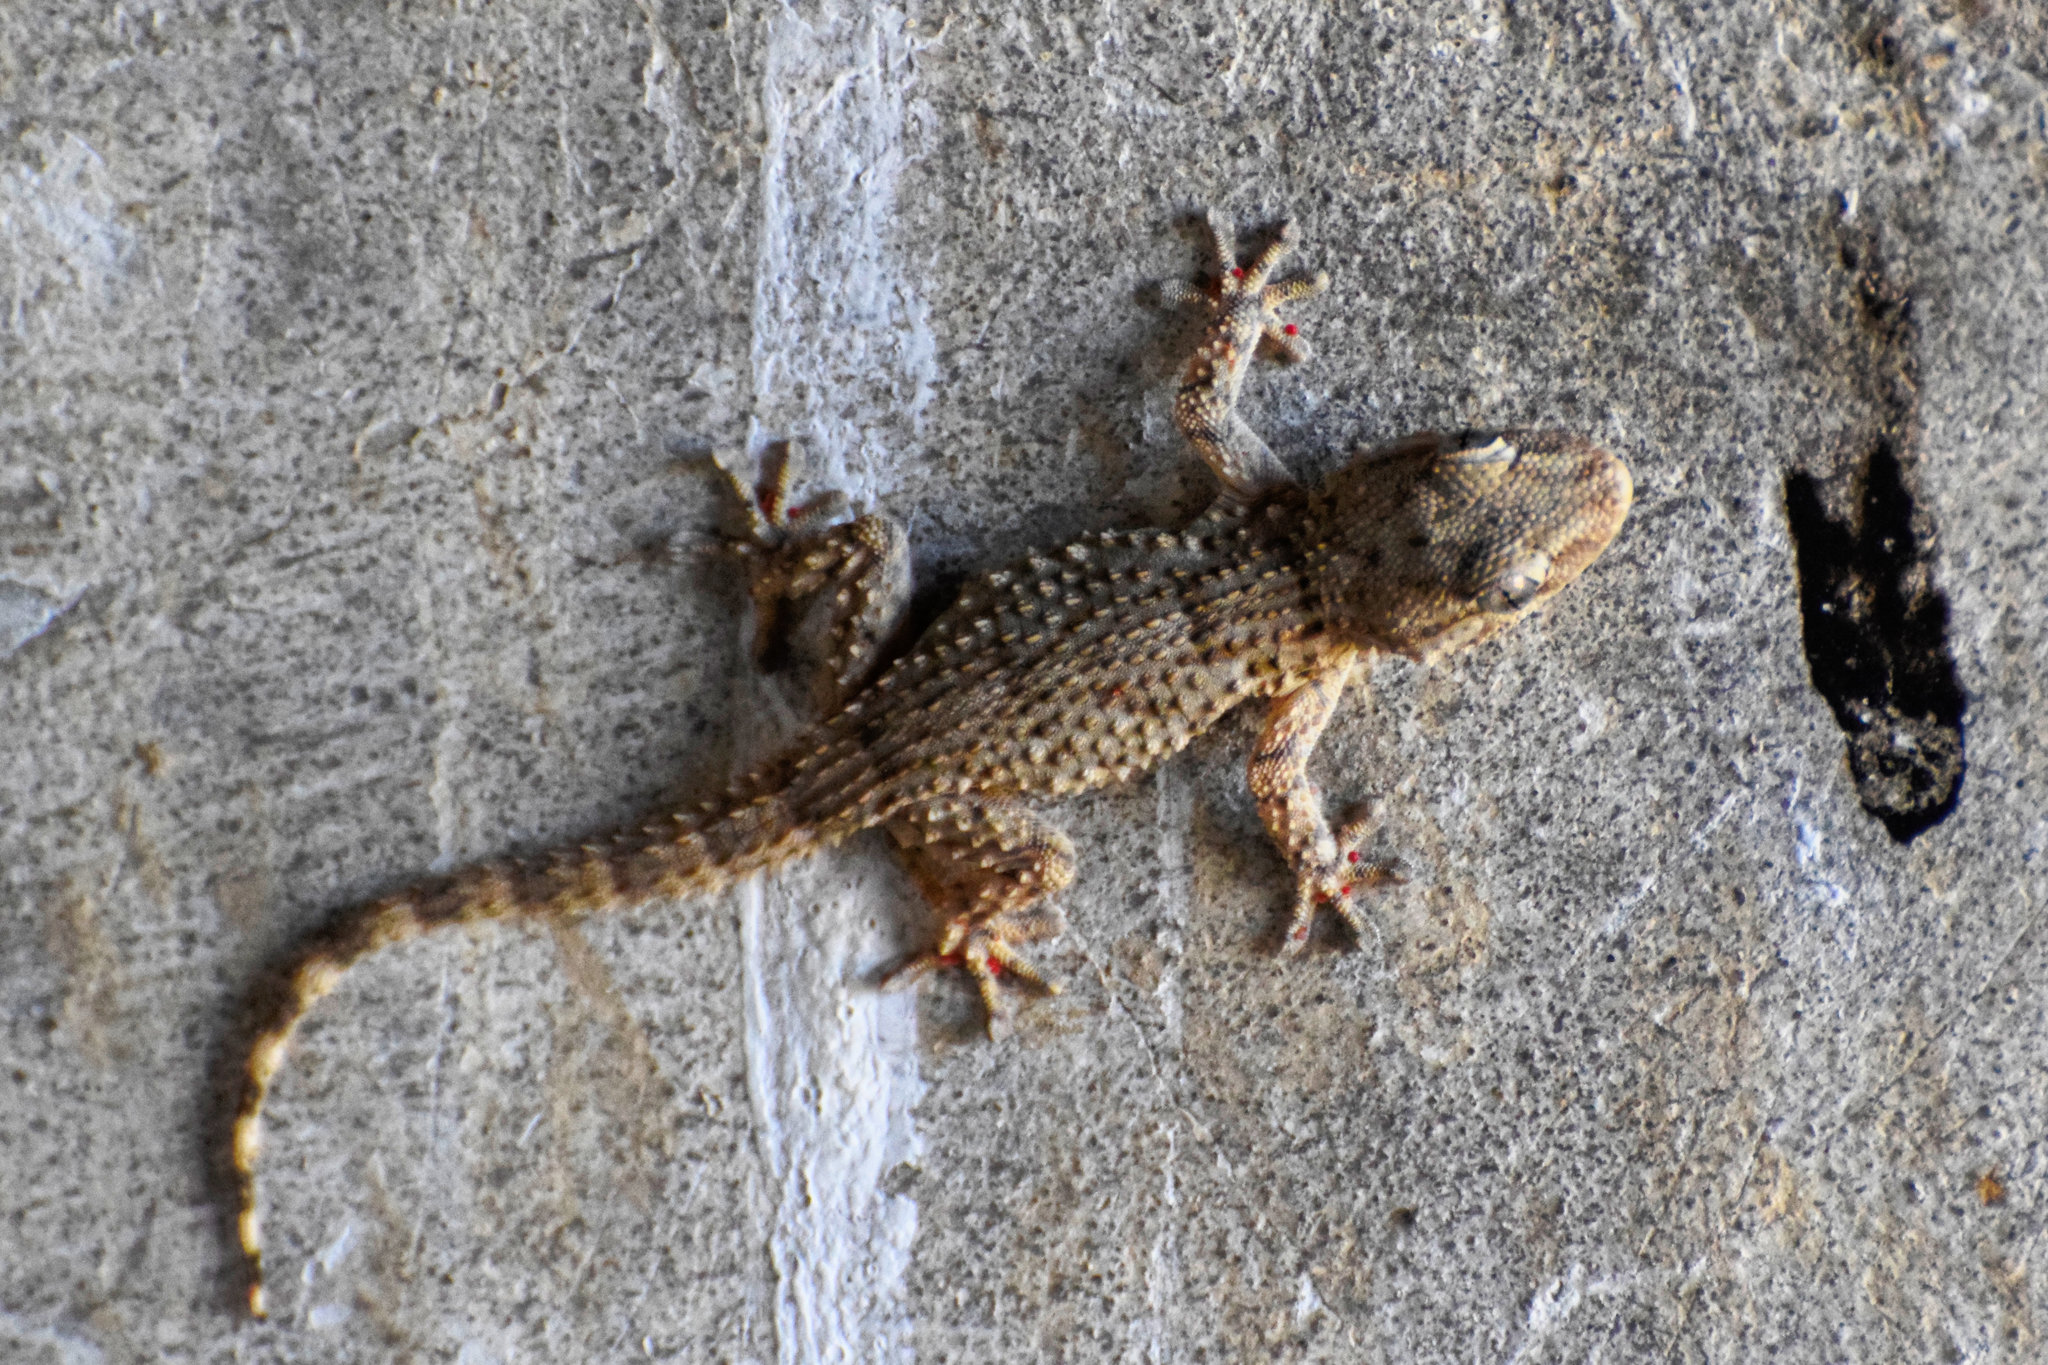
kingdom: Animalia
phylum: Chordata
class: Squamata
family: Phyllodactylidae
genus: Tarentola
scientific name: Tarentola mauritanica
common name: Moorish gecko
